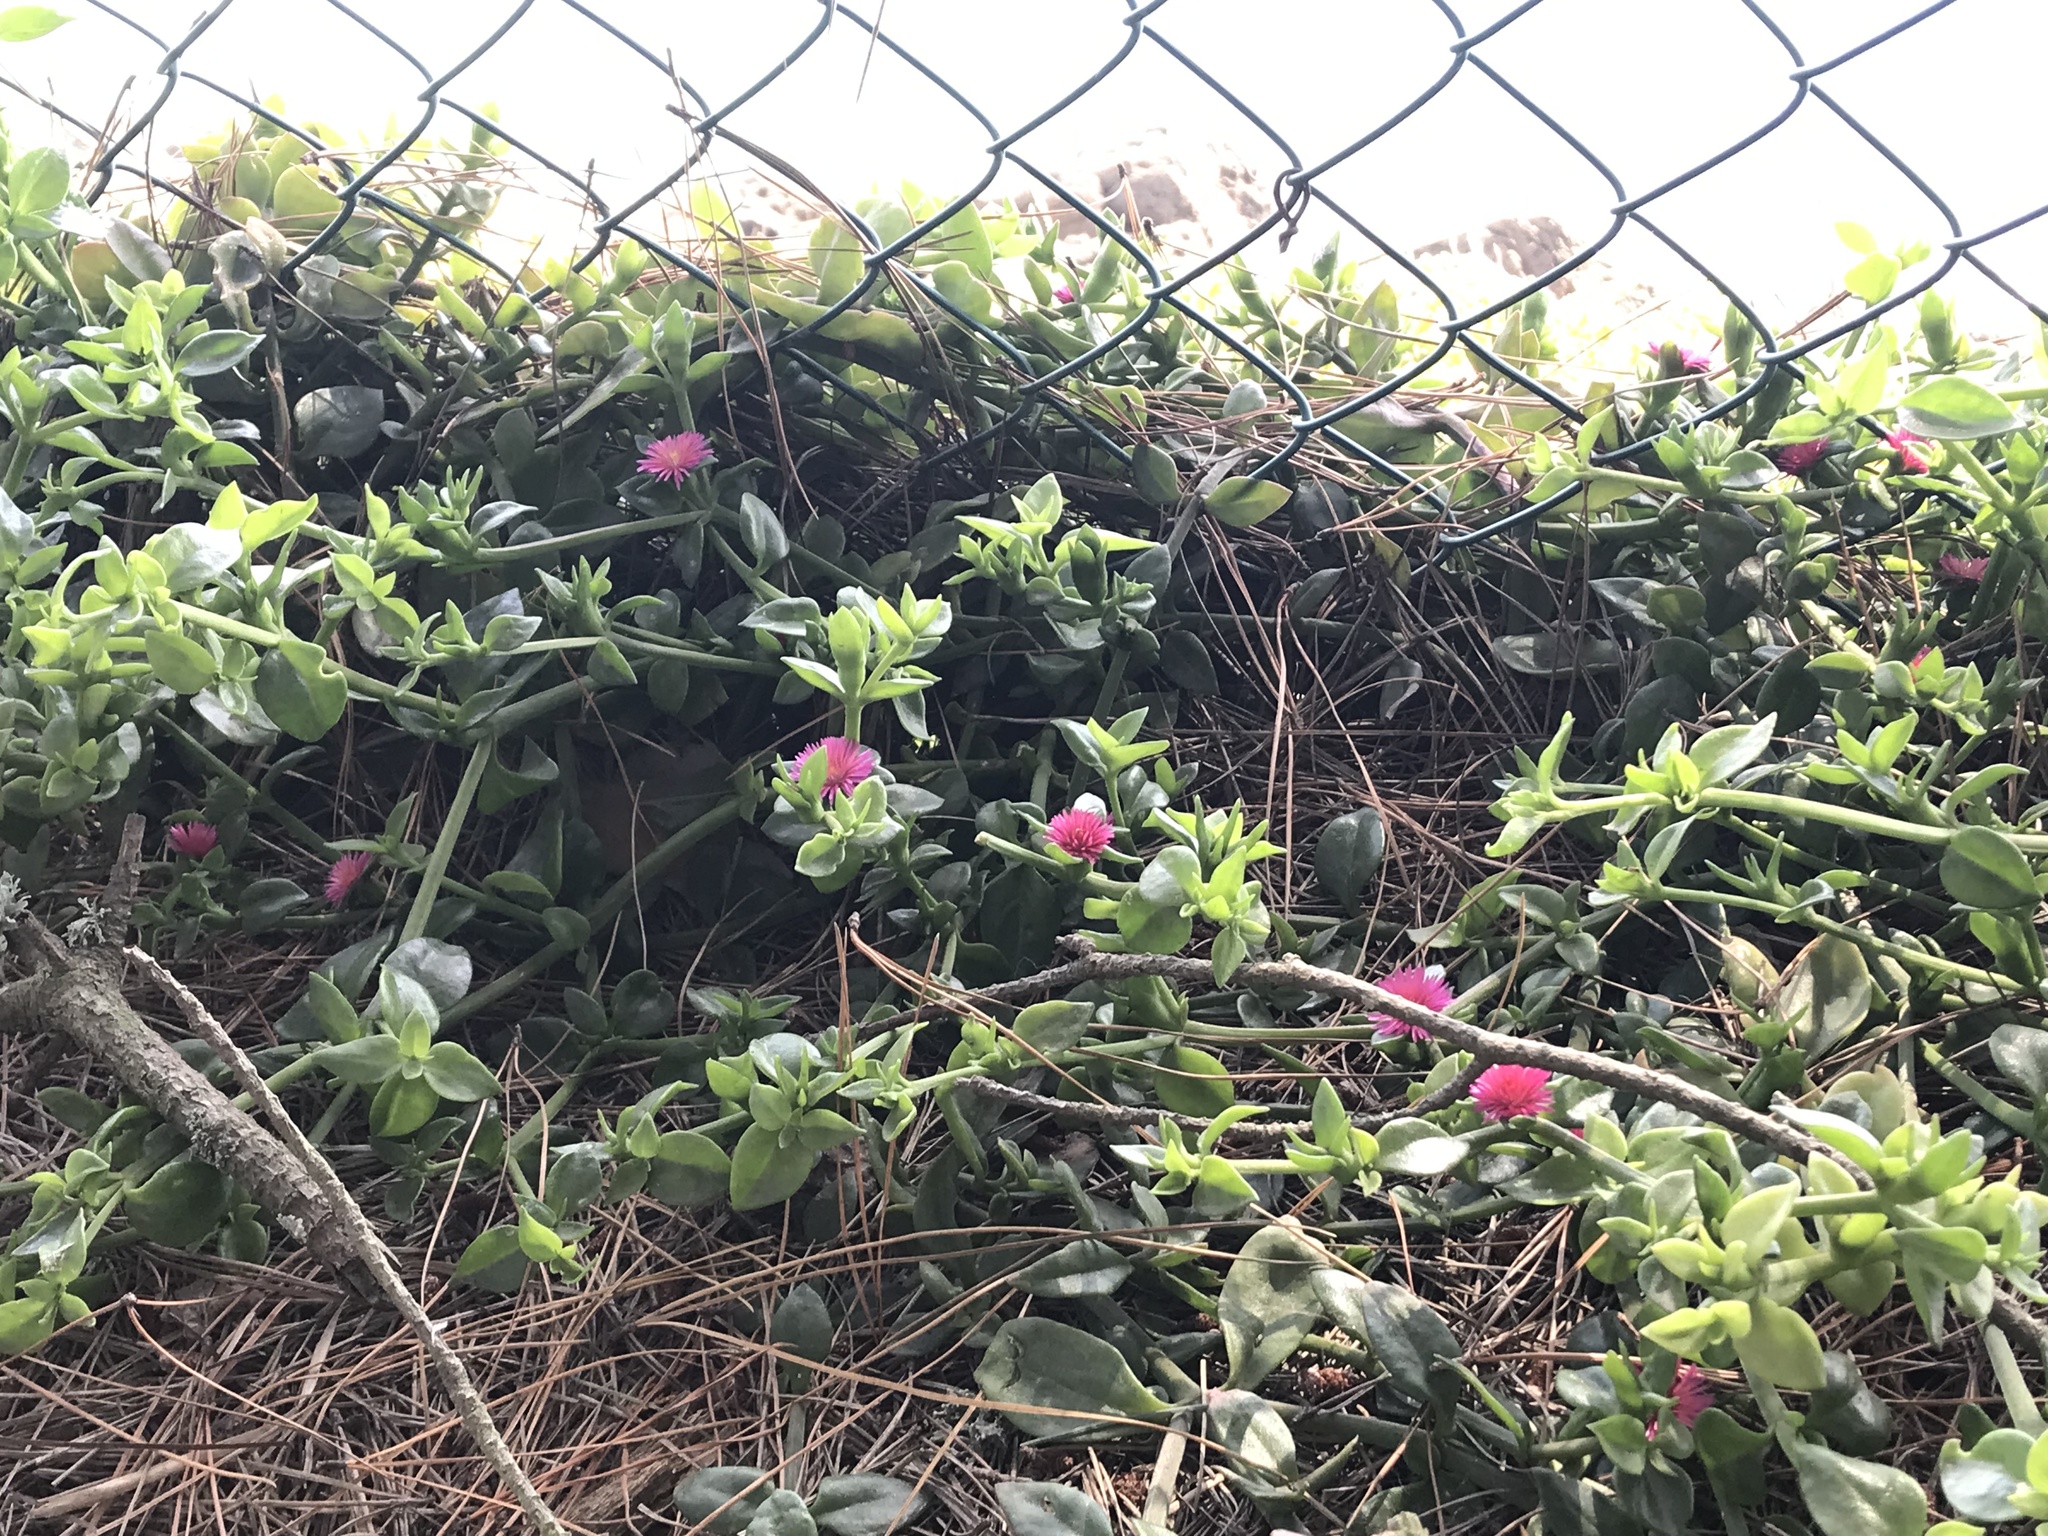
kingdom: Plantae
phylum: Tracheophyta
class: Magnoliopsida
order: Caryophyllales
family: Aizoaceae
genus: Mesembryanthemum
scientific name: Mesembryanthemum cordifolium
